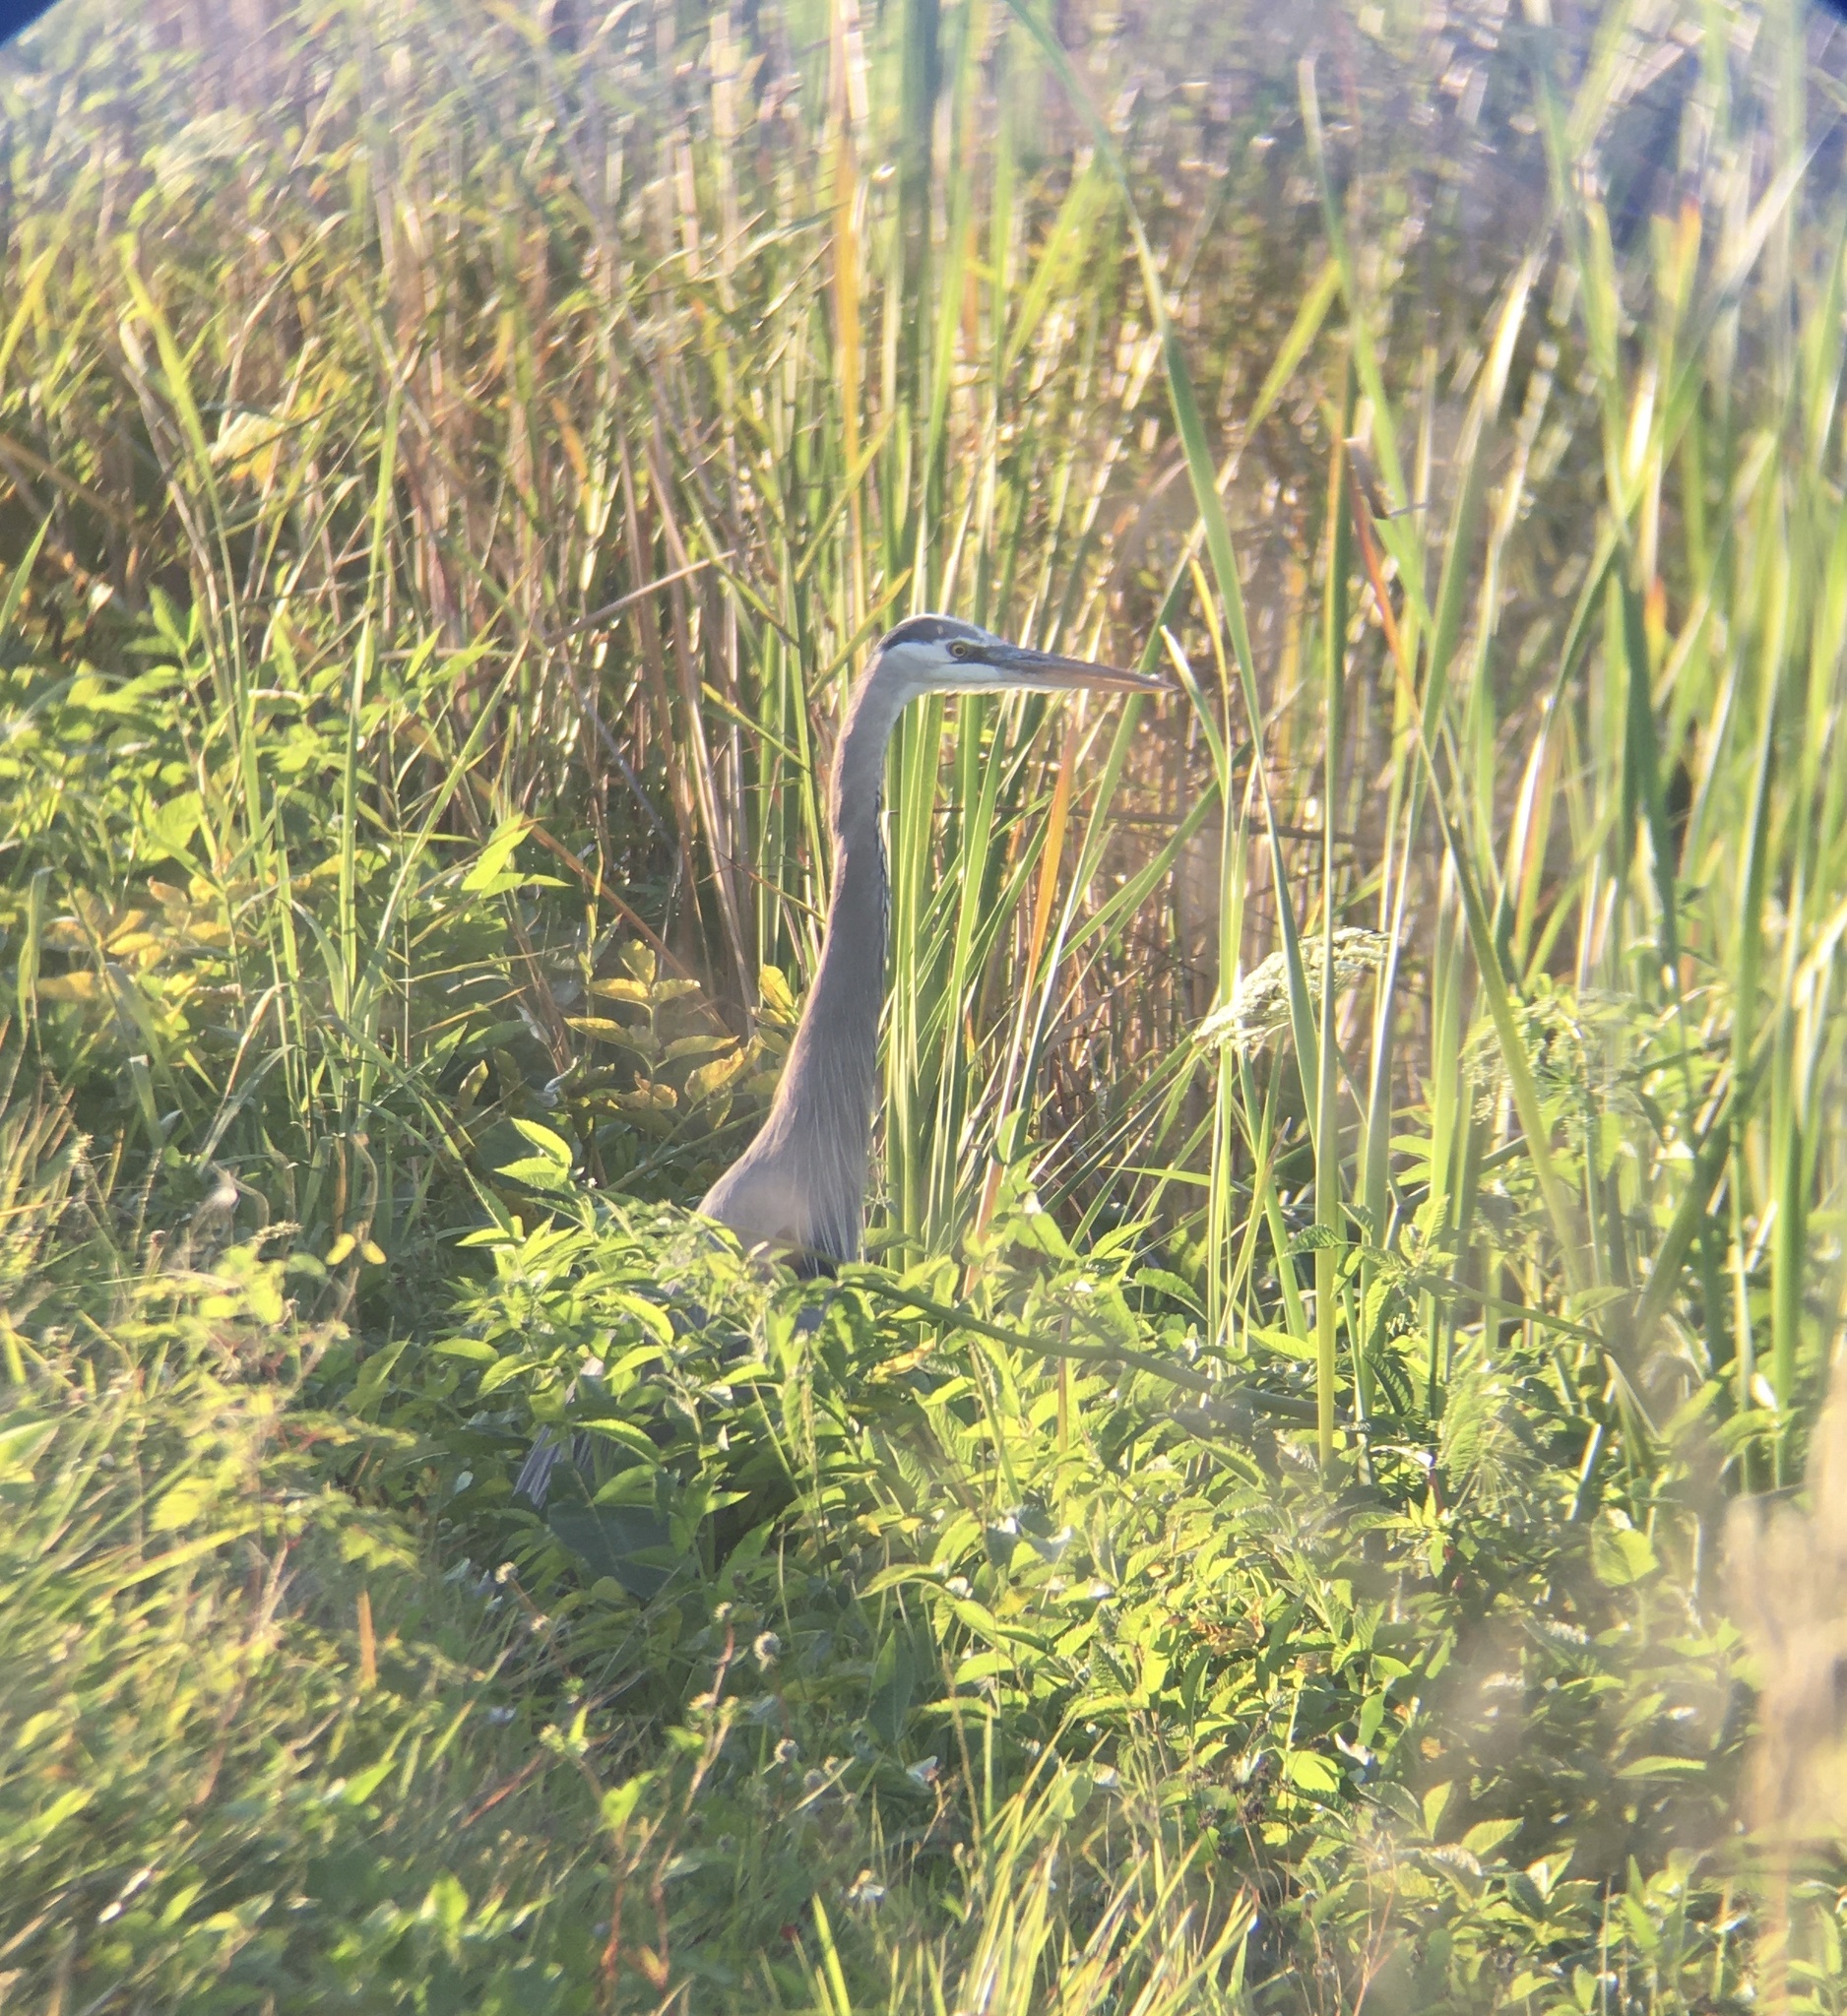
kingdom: Animalia
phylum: Chordata
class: Aves
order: Pelecaniformes
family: Ardeidae
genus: Ardea
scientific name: Ardea herodias
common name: Great blue heron
